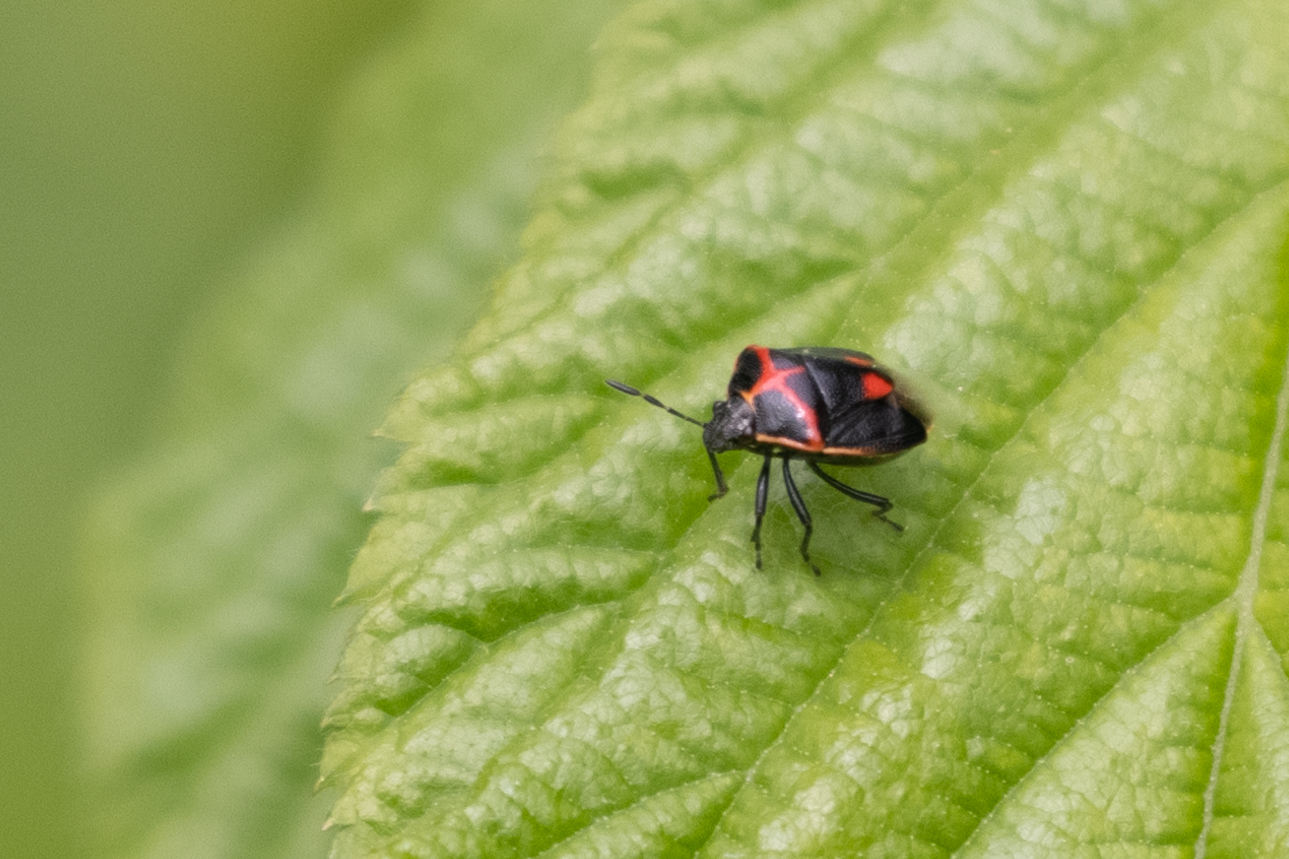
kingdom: Animalia
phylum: Arthropoda
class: Insecta
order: Hemiptera
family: Pentatomidae
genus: Cosmopepla
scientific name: Cosmopepla lintneriana
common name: Twice-stabbed stink bug
